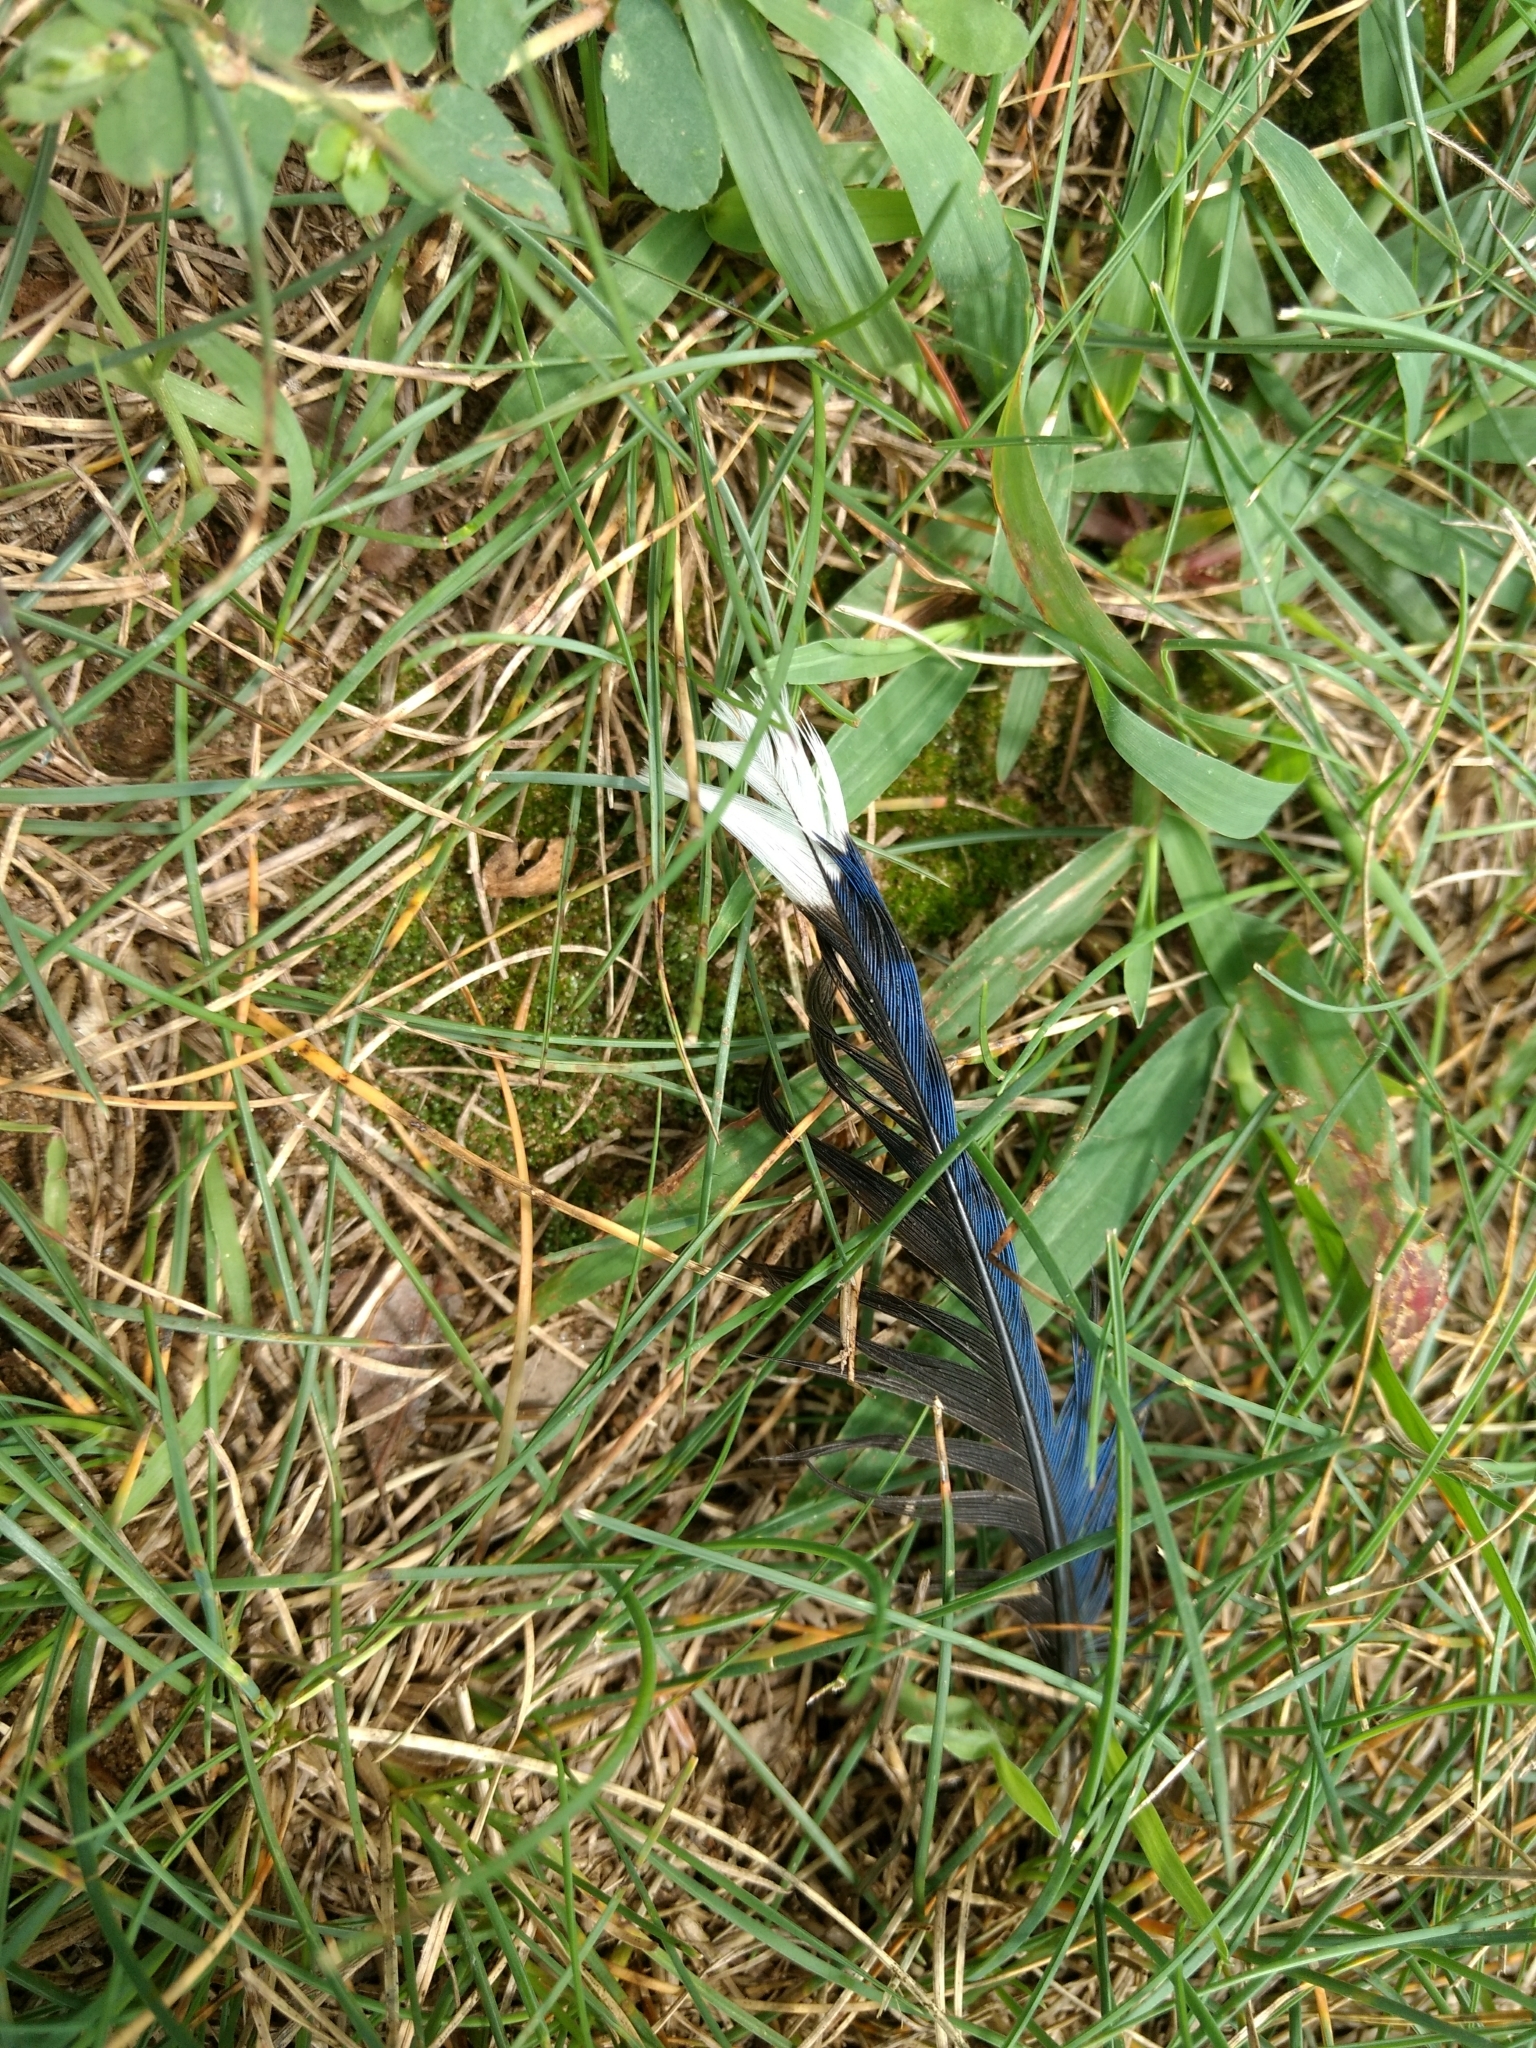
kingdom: Animalia
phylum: Chordata
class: Aves
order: Passeriformes
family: Corvidae
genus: Cyanocitta
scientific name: Cyanocitta cristata
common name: Blue jay
